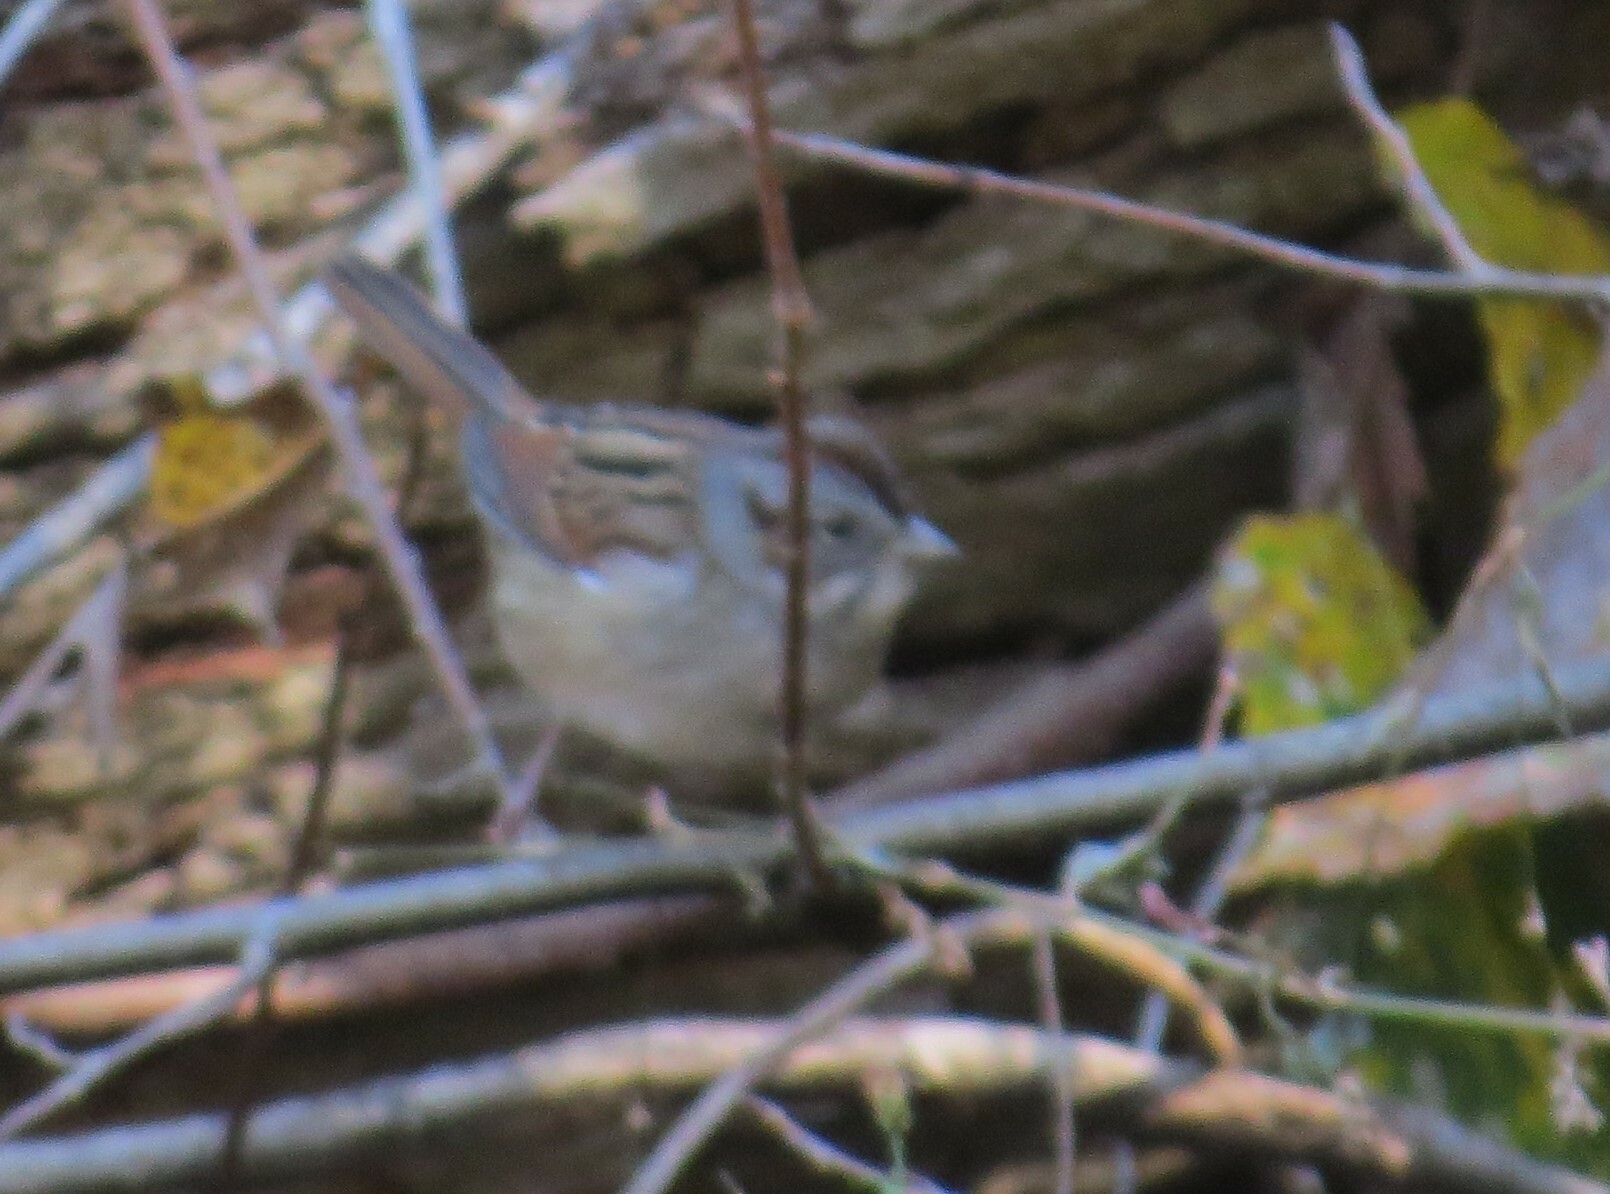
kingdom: Animalia
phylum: Chordata
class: Aves
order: Passeriformes
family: Passerellidae
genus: Melospiza
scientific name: Melospiza georgiana
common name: Swamp sparrow
